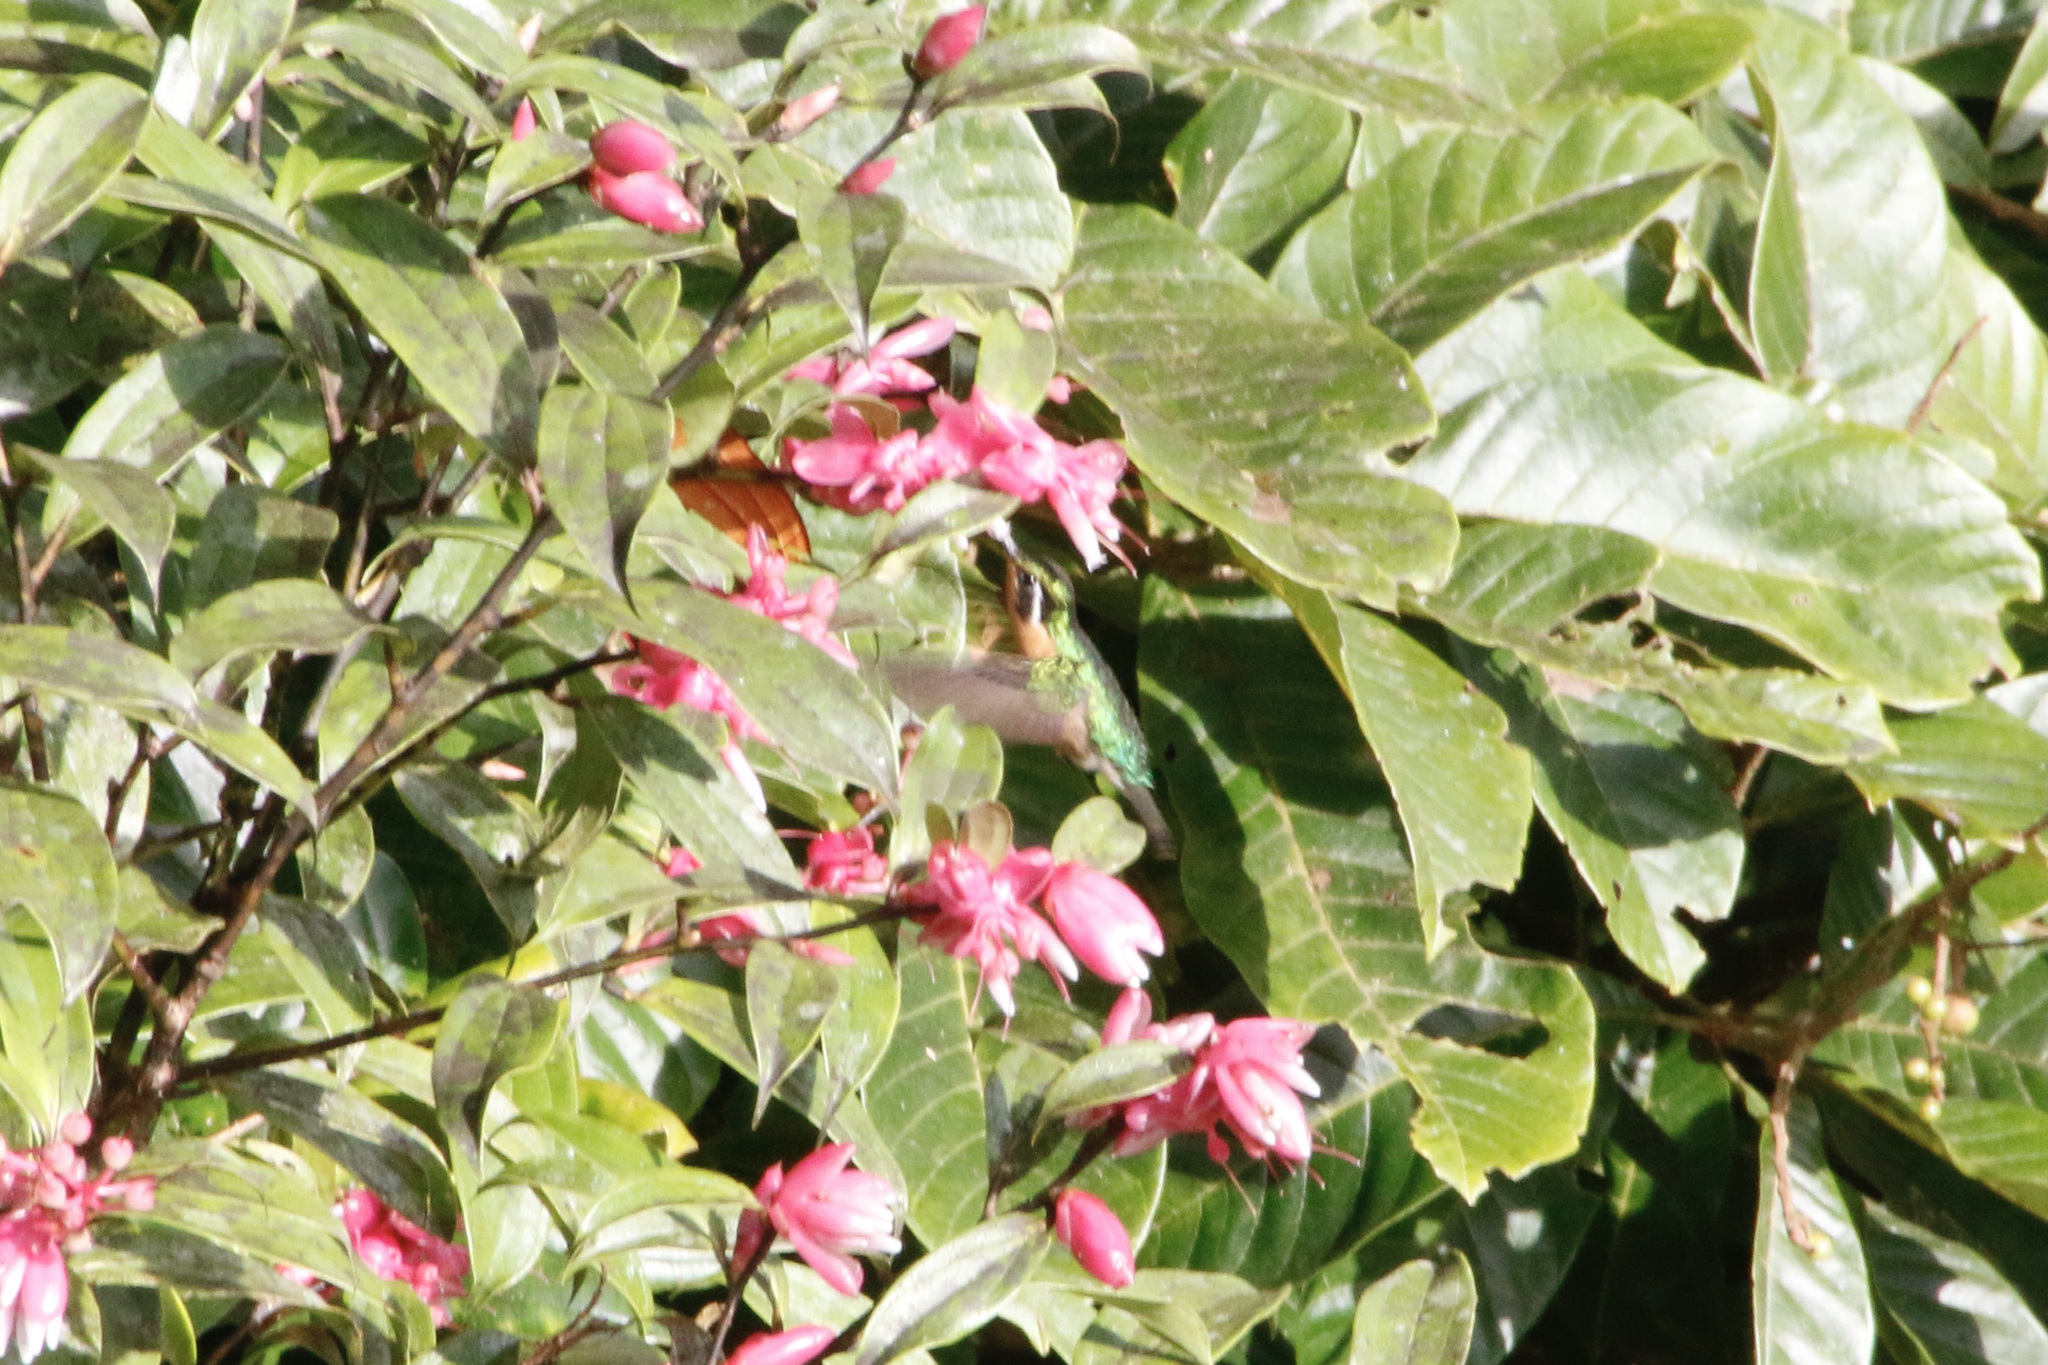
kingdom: Animalia
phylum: Chordata
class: Aves
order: Apodiformes
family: Trochilidae
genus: Lampornis
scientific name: Lampornis calolaemus
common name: Purple-throated mountain-gem
